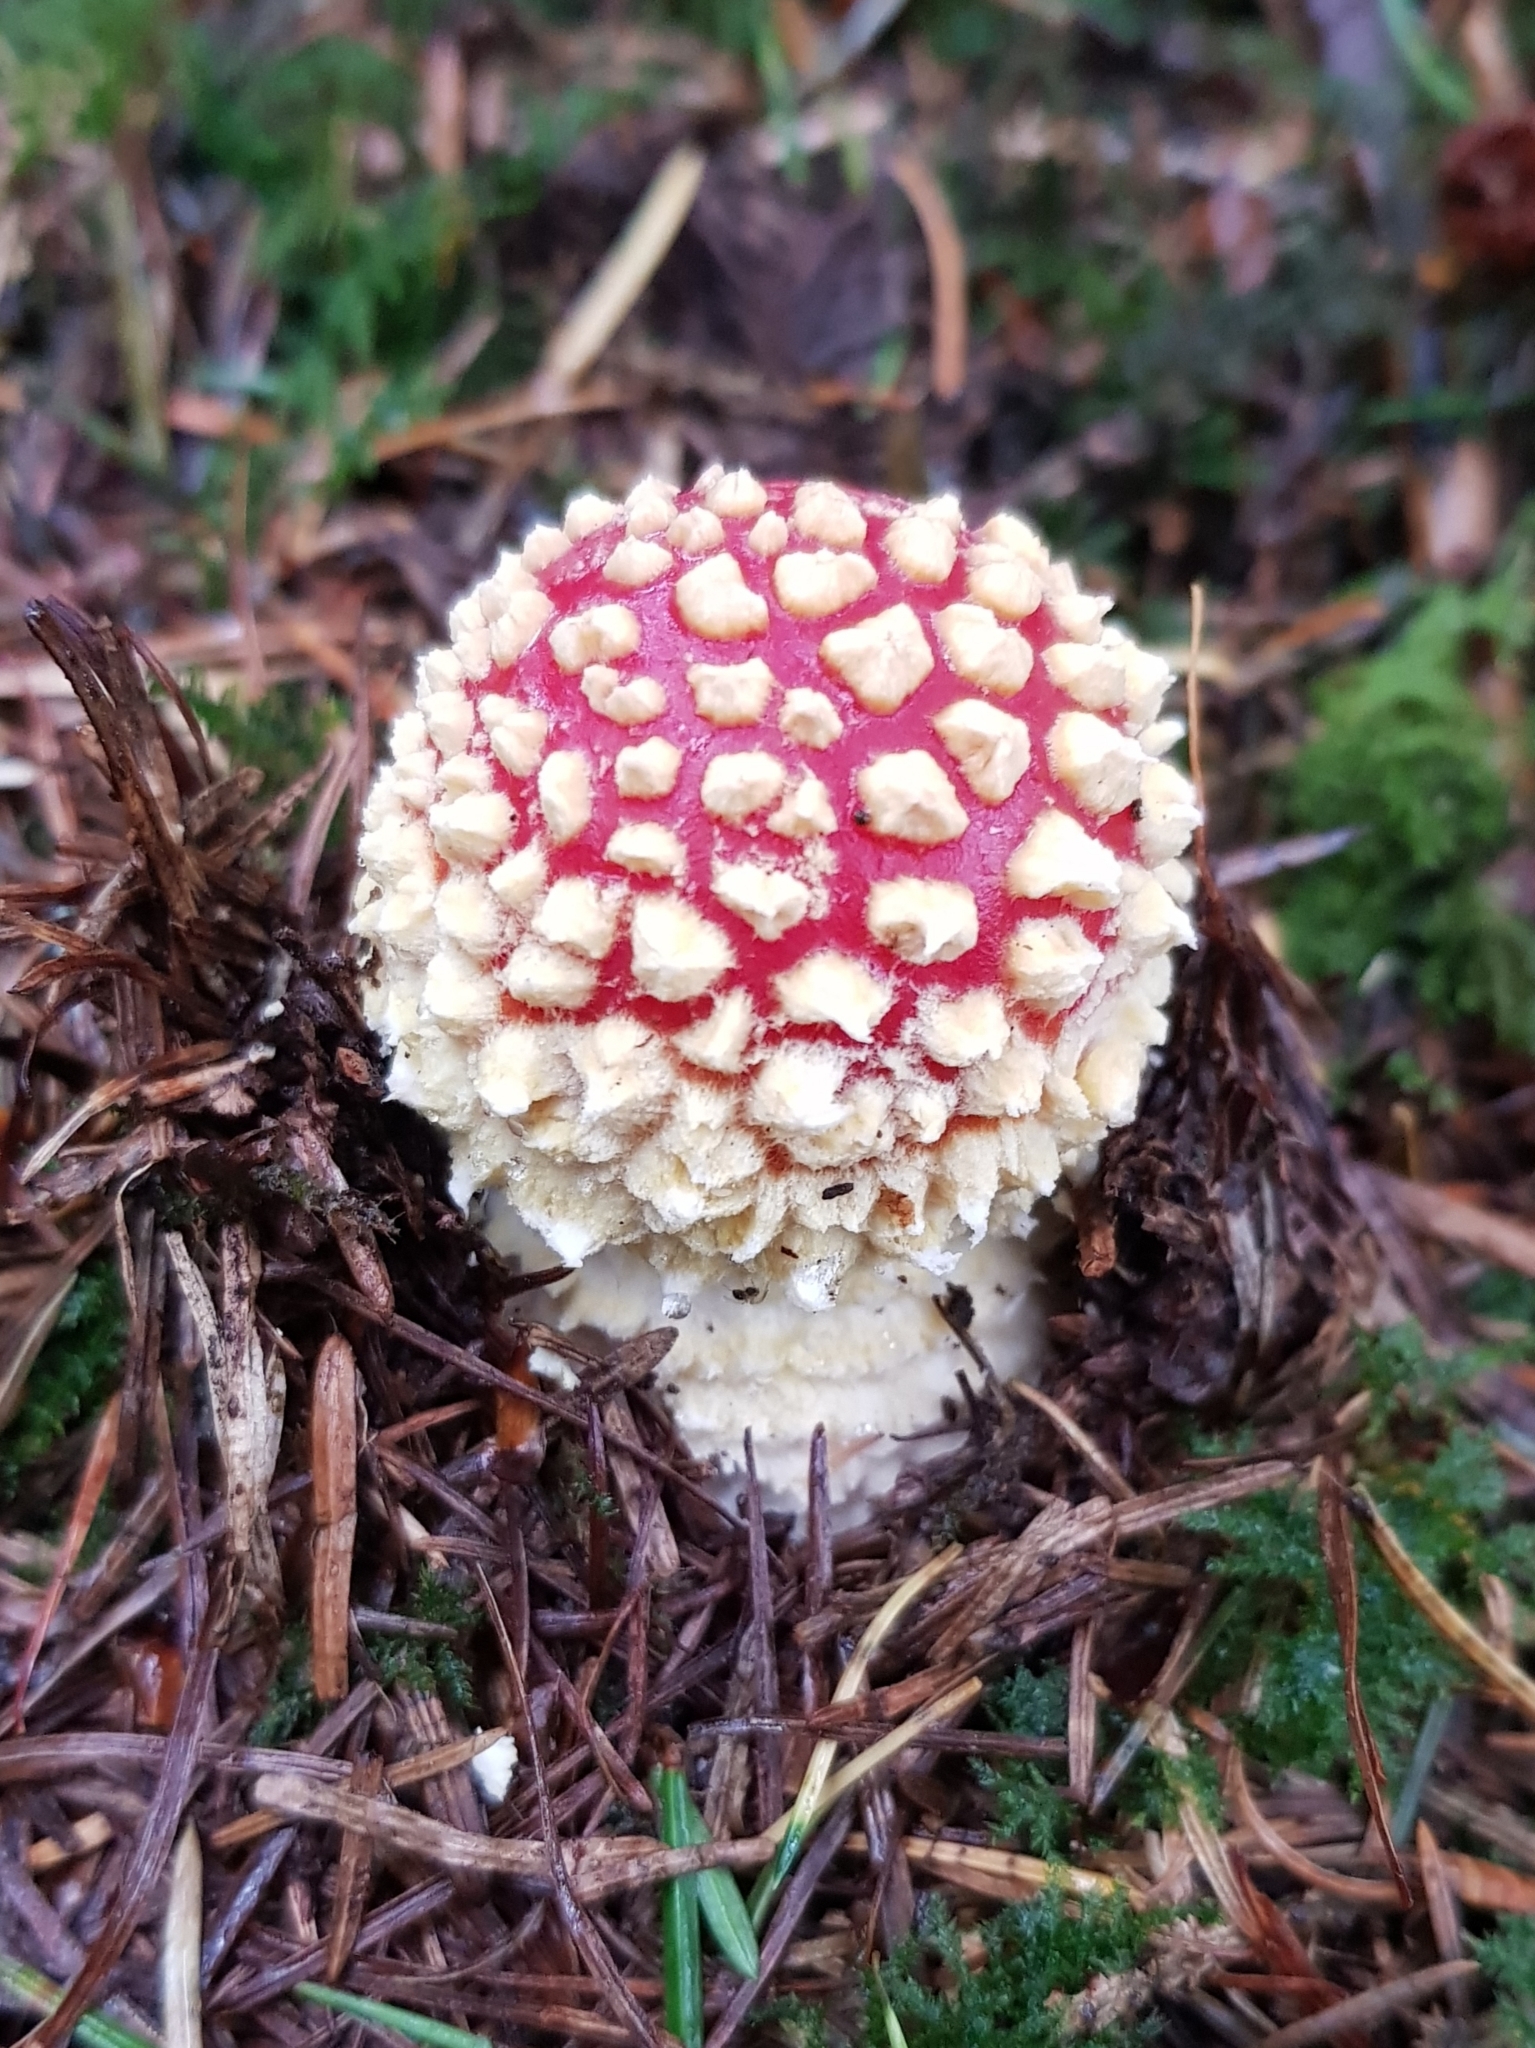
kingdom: Fungi
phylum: Basidiomycota
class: Agaricomycetes
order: Agaricales
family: Amanitaceae
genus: Amanita
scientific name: Amanita muscaria
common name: Fly agaric
